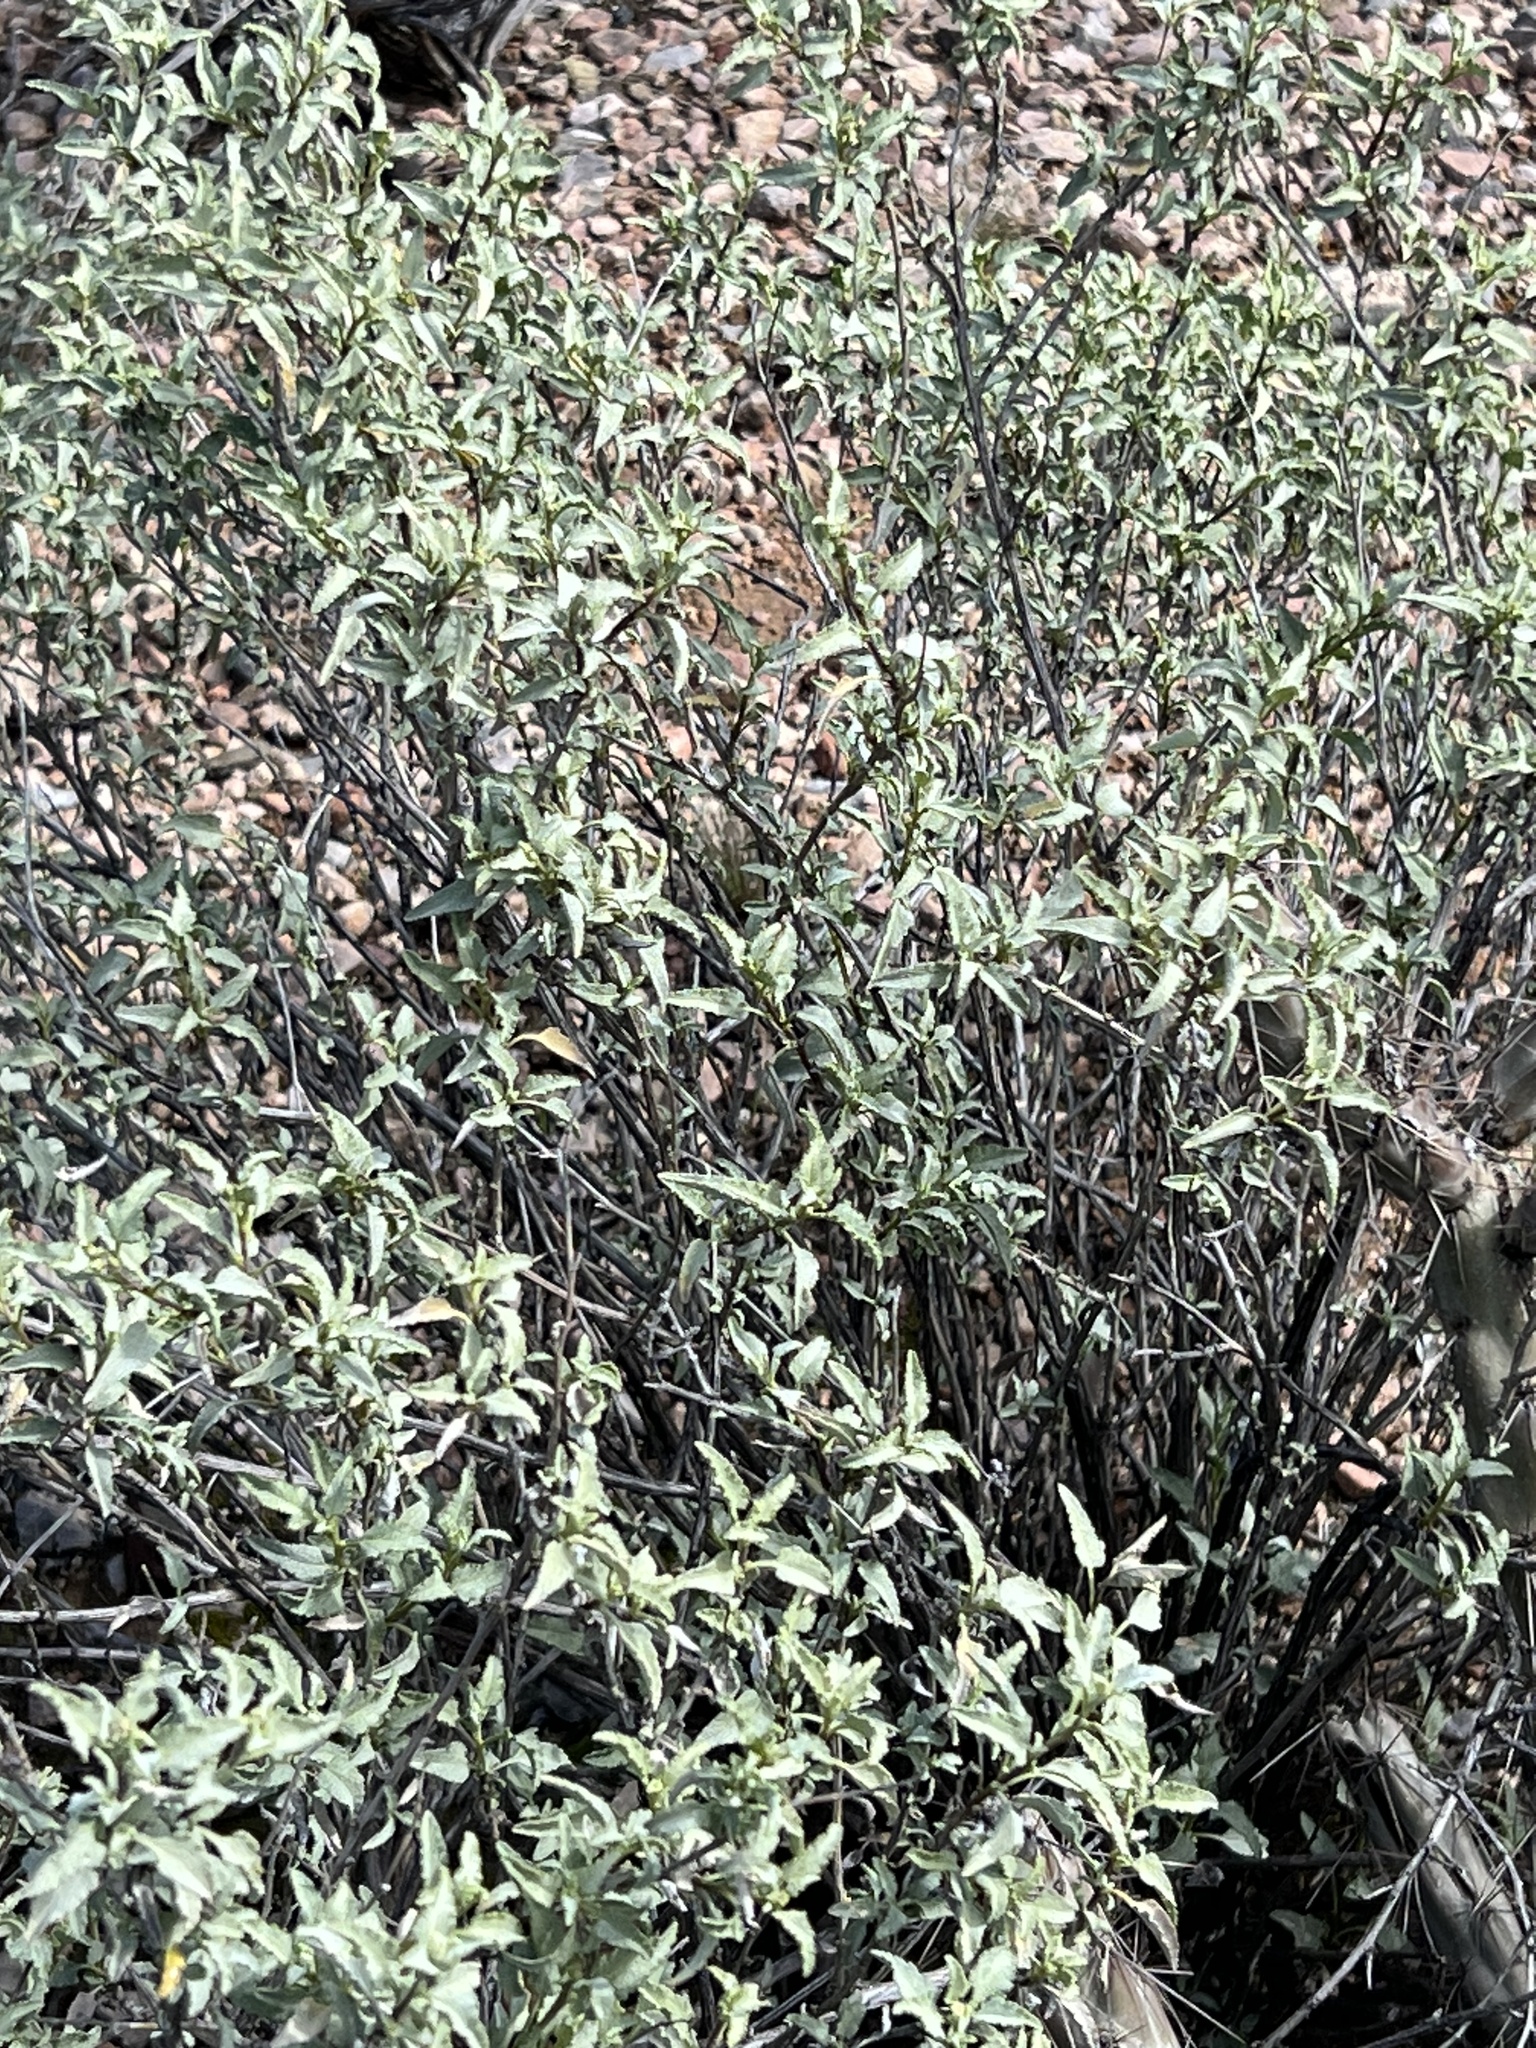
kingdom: Plantae
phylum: Tracheophyta
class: Magnoliopsida
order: Asterales
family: Asteraceae
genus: Ambrosia
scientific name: Ambrosia deltoidea
